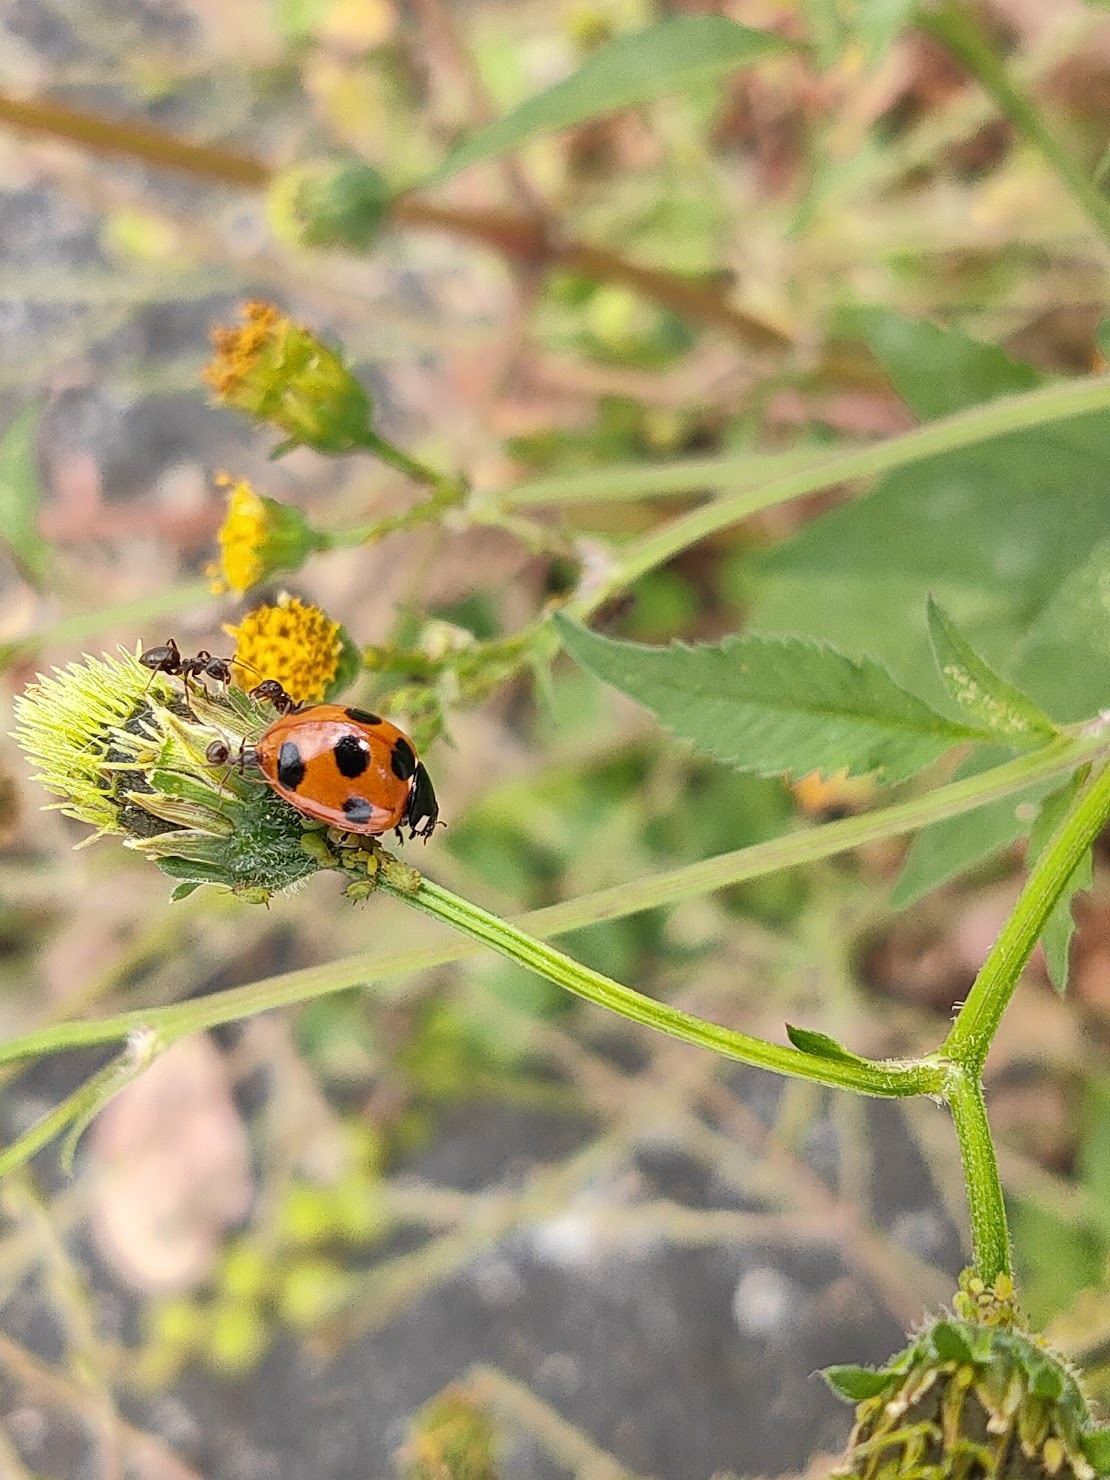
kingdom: Animalia
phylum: Arthropoda
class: Insecta
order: Coleoptera
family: Coccinellidae
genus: Coccinella
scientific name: Coccinella septempunctata
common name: Sevenspotted lady beetle
